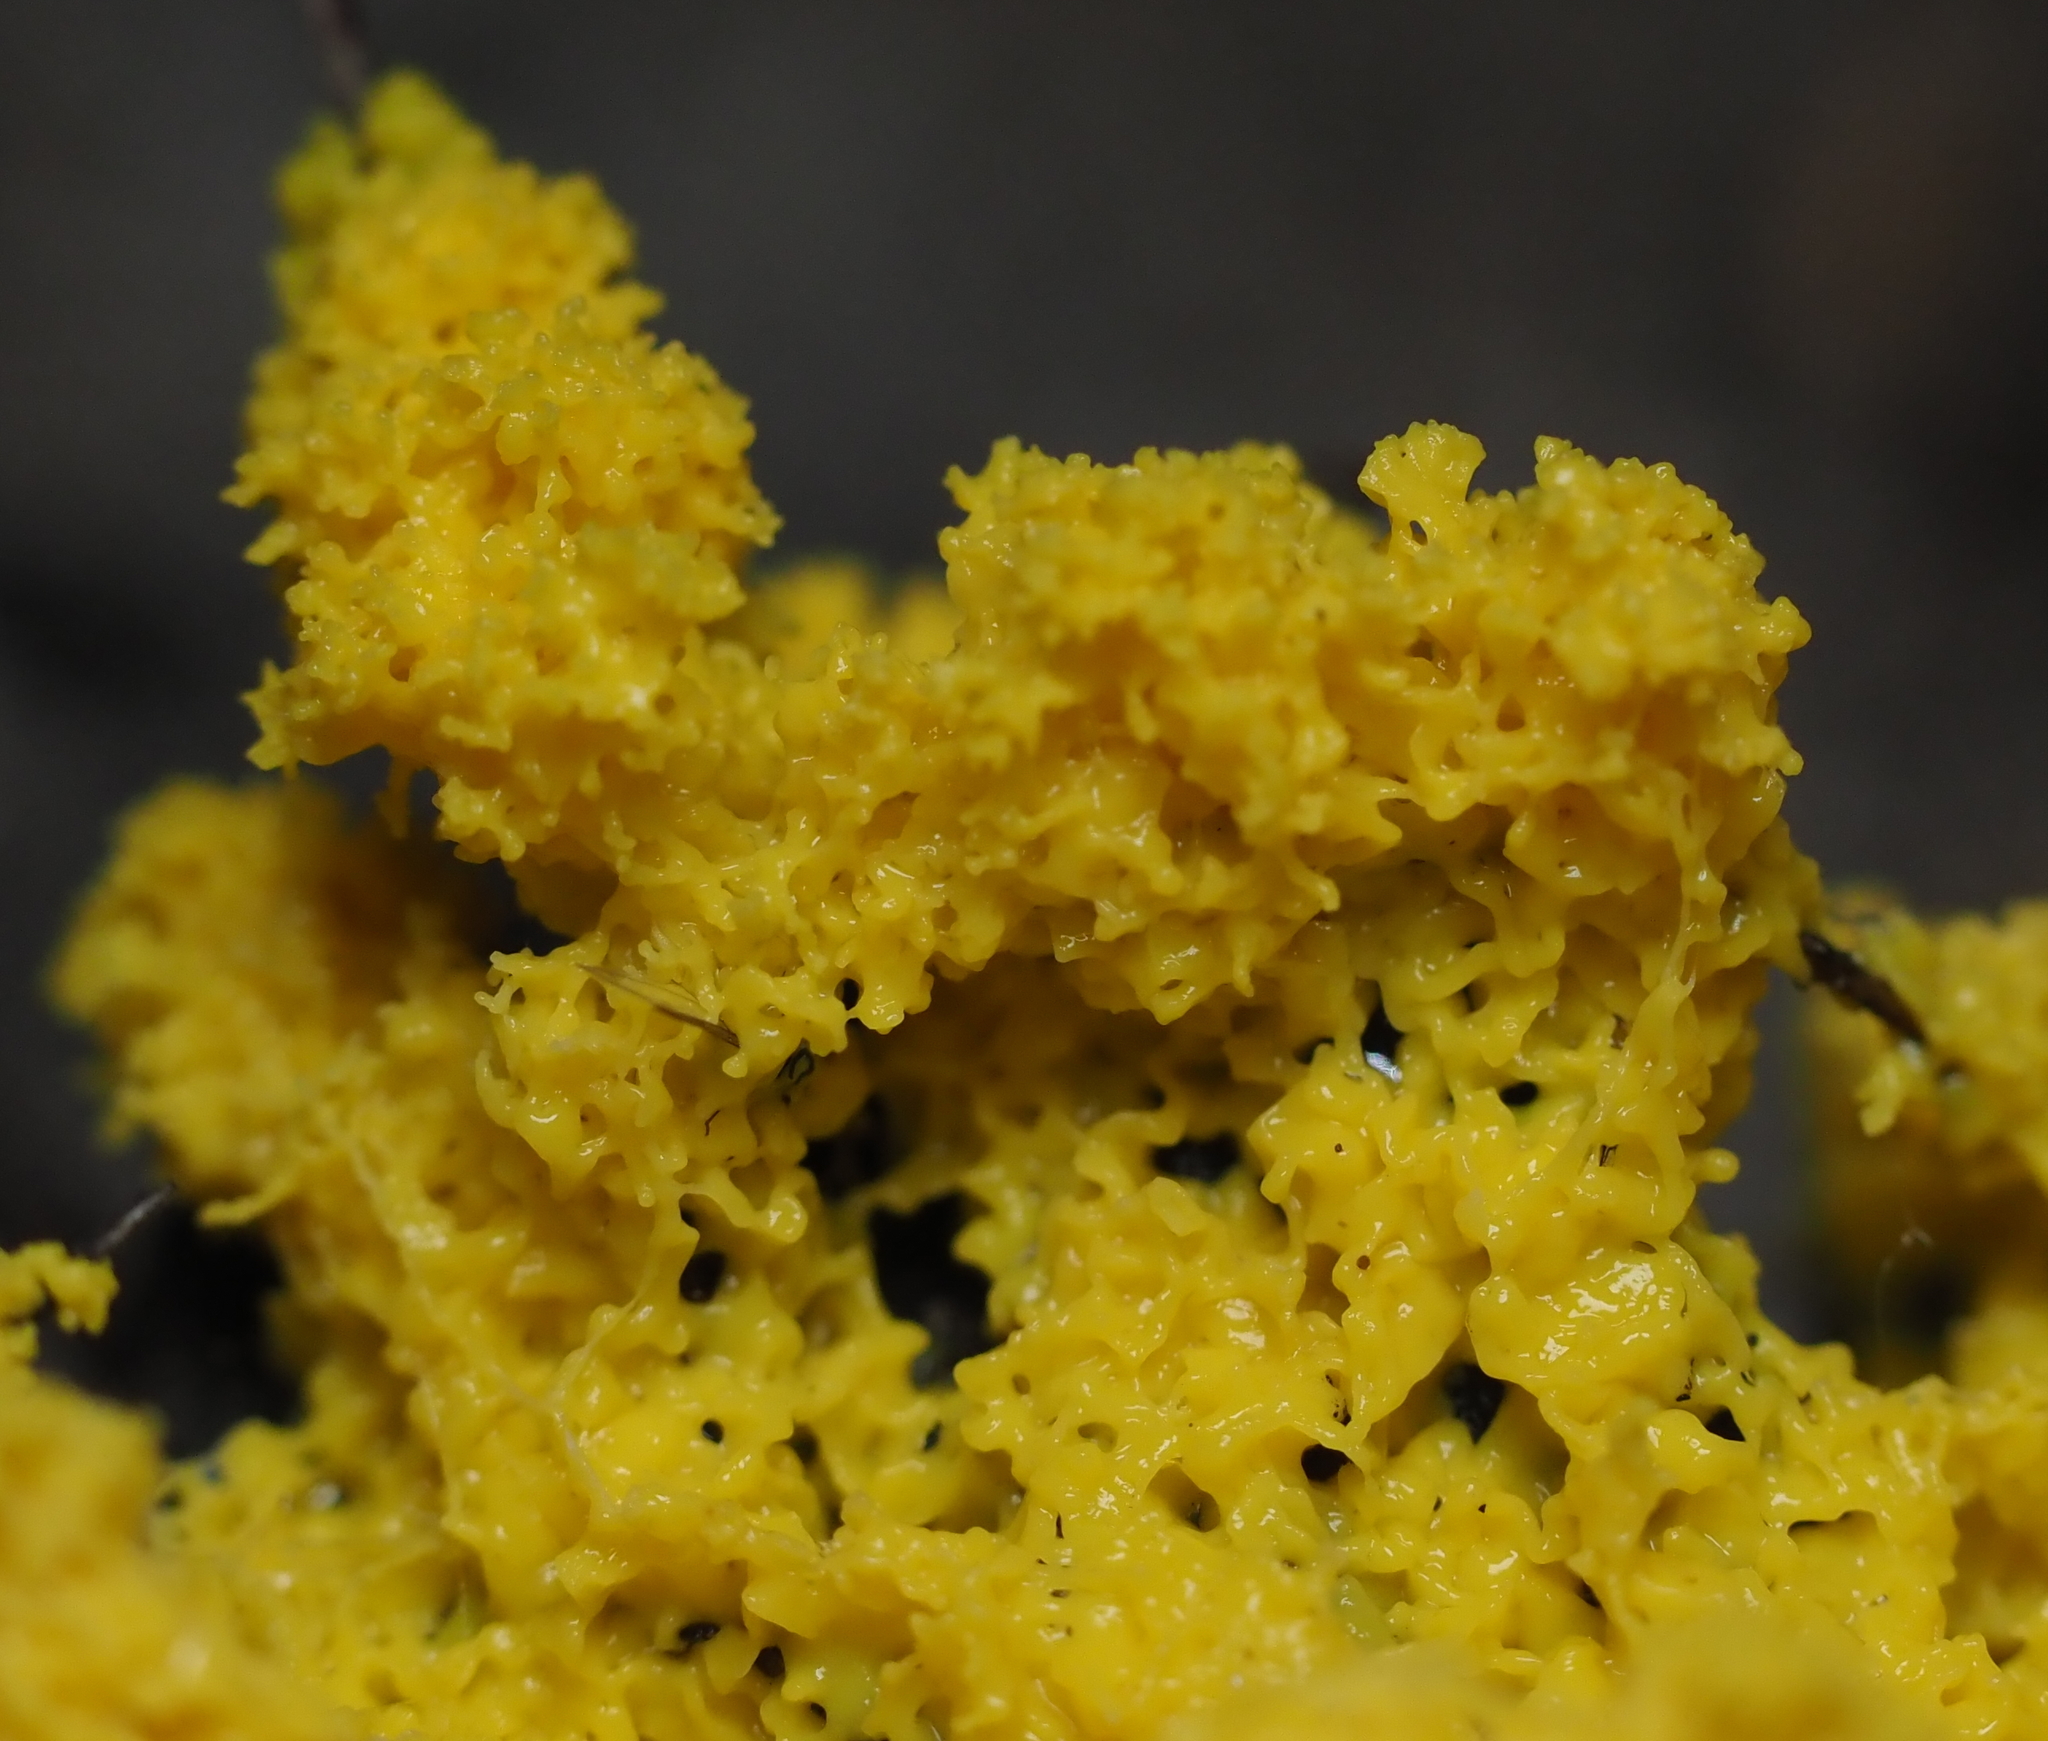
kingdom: Protozoa
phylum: Mycetozoa
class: Myxomycetes
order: Physarales
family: Physaraceae
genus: Fuligo
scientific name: Fuligo septica
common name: Dog vomit slime mold
